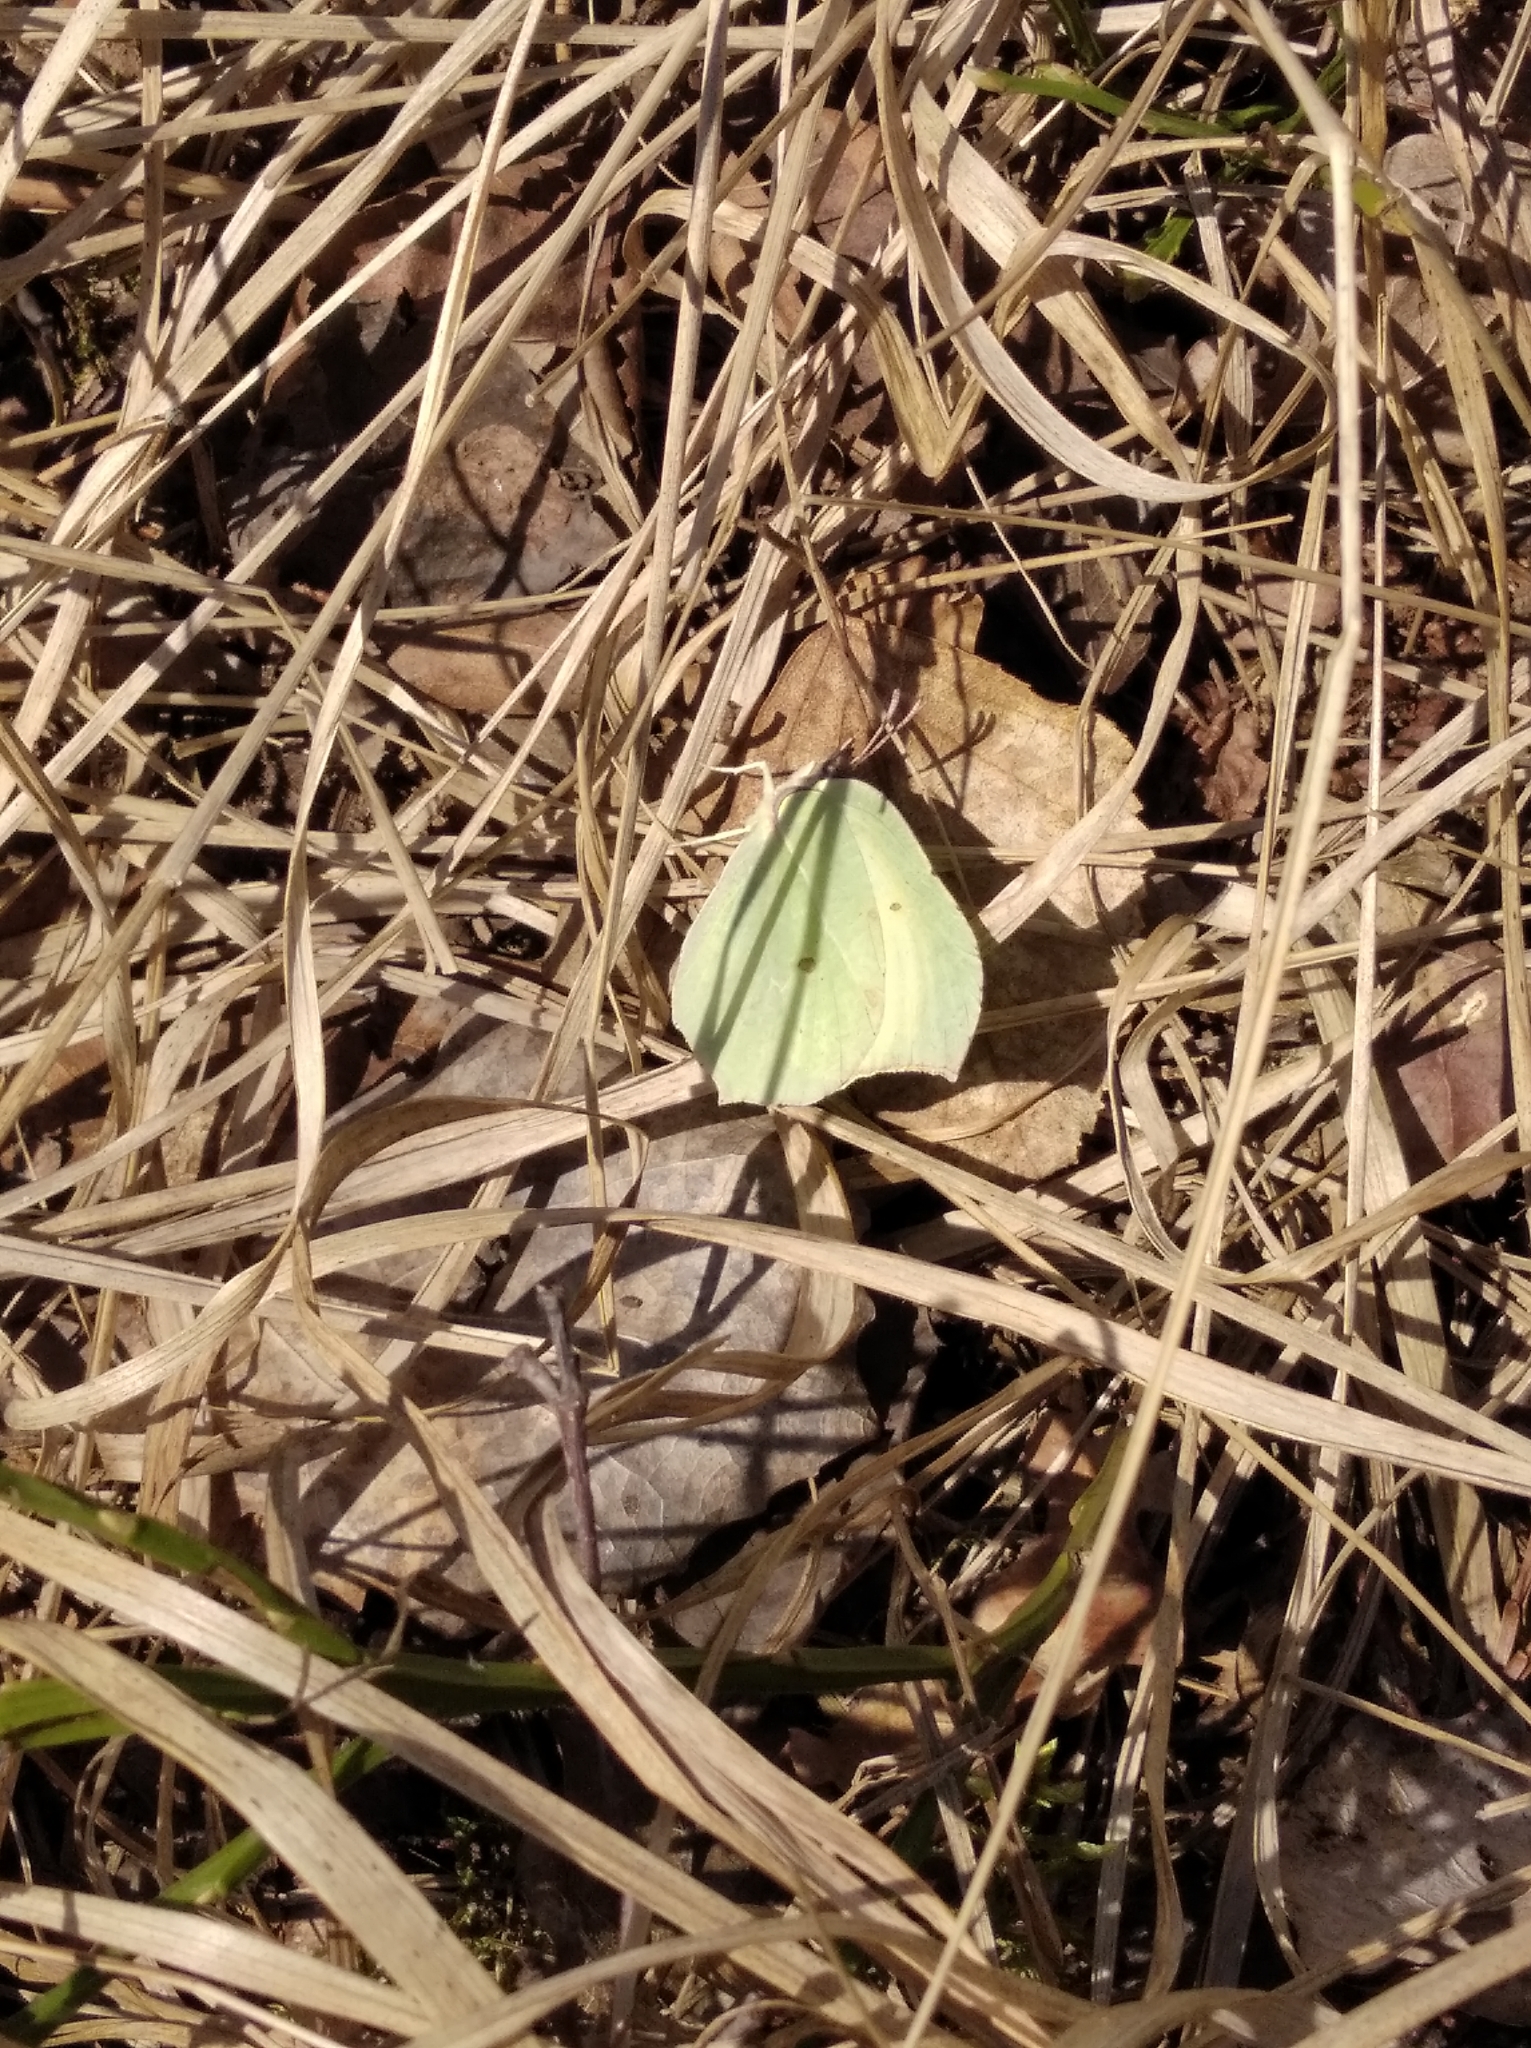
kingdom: Animalia
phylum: Arthropoda
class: Insecta
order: Lepidoptera
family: Pieridae
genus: Gonepteryx
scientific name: Gonepteryx rhamni
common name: Brimstone
